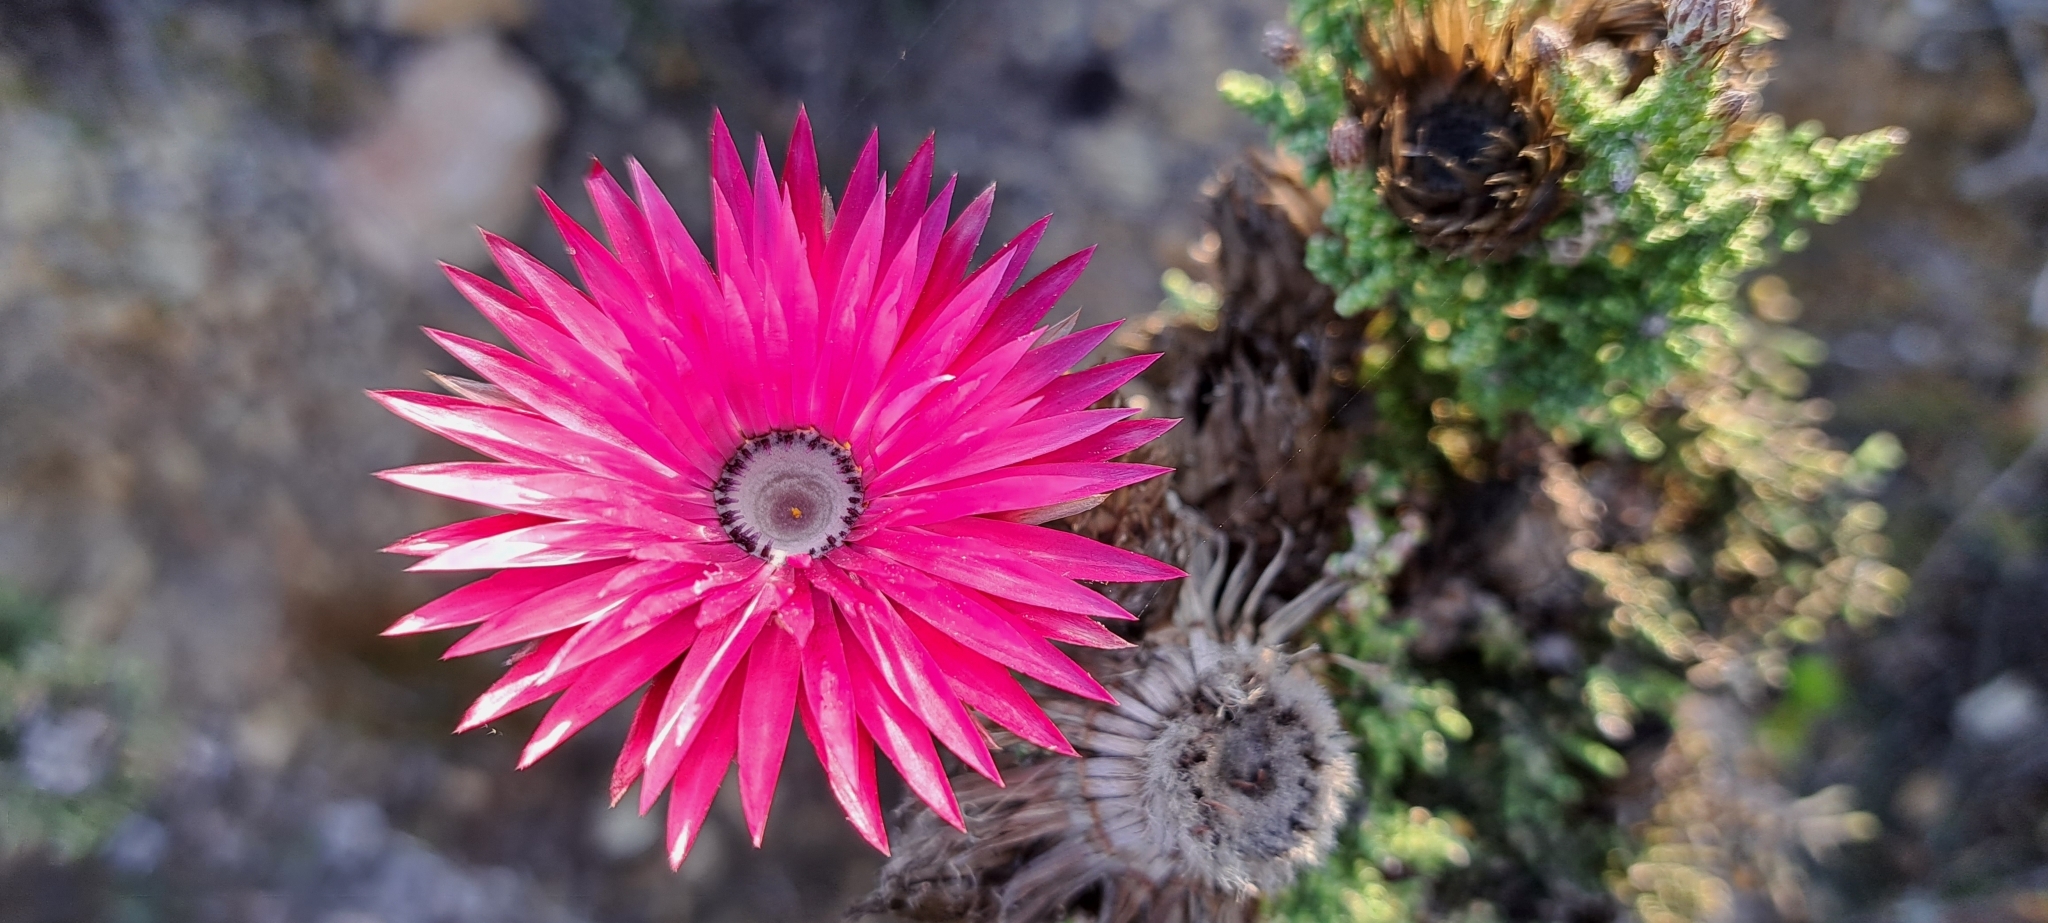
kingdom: Plantae
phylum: Tracheophyta
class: Magnoliopsida
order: Asterales
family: Asteraceae
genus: Phaenocoma
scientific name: Phaenocoma prolifera
